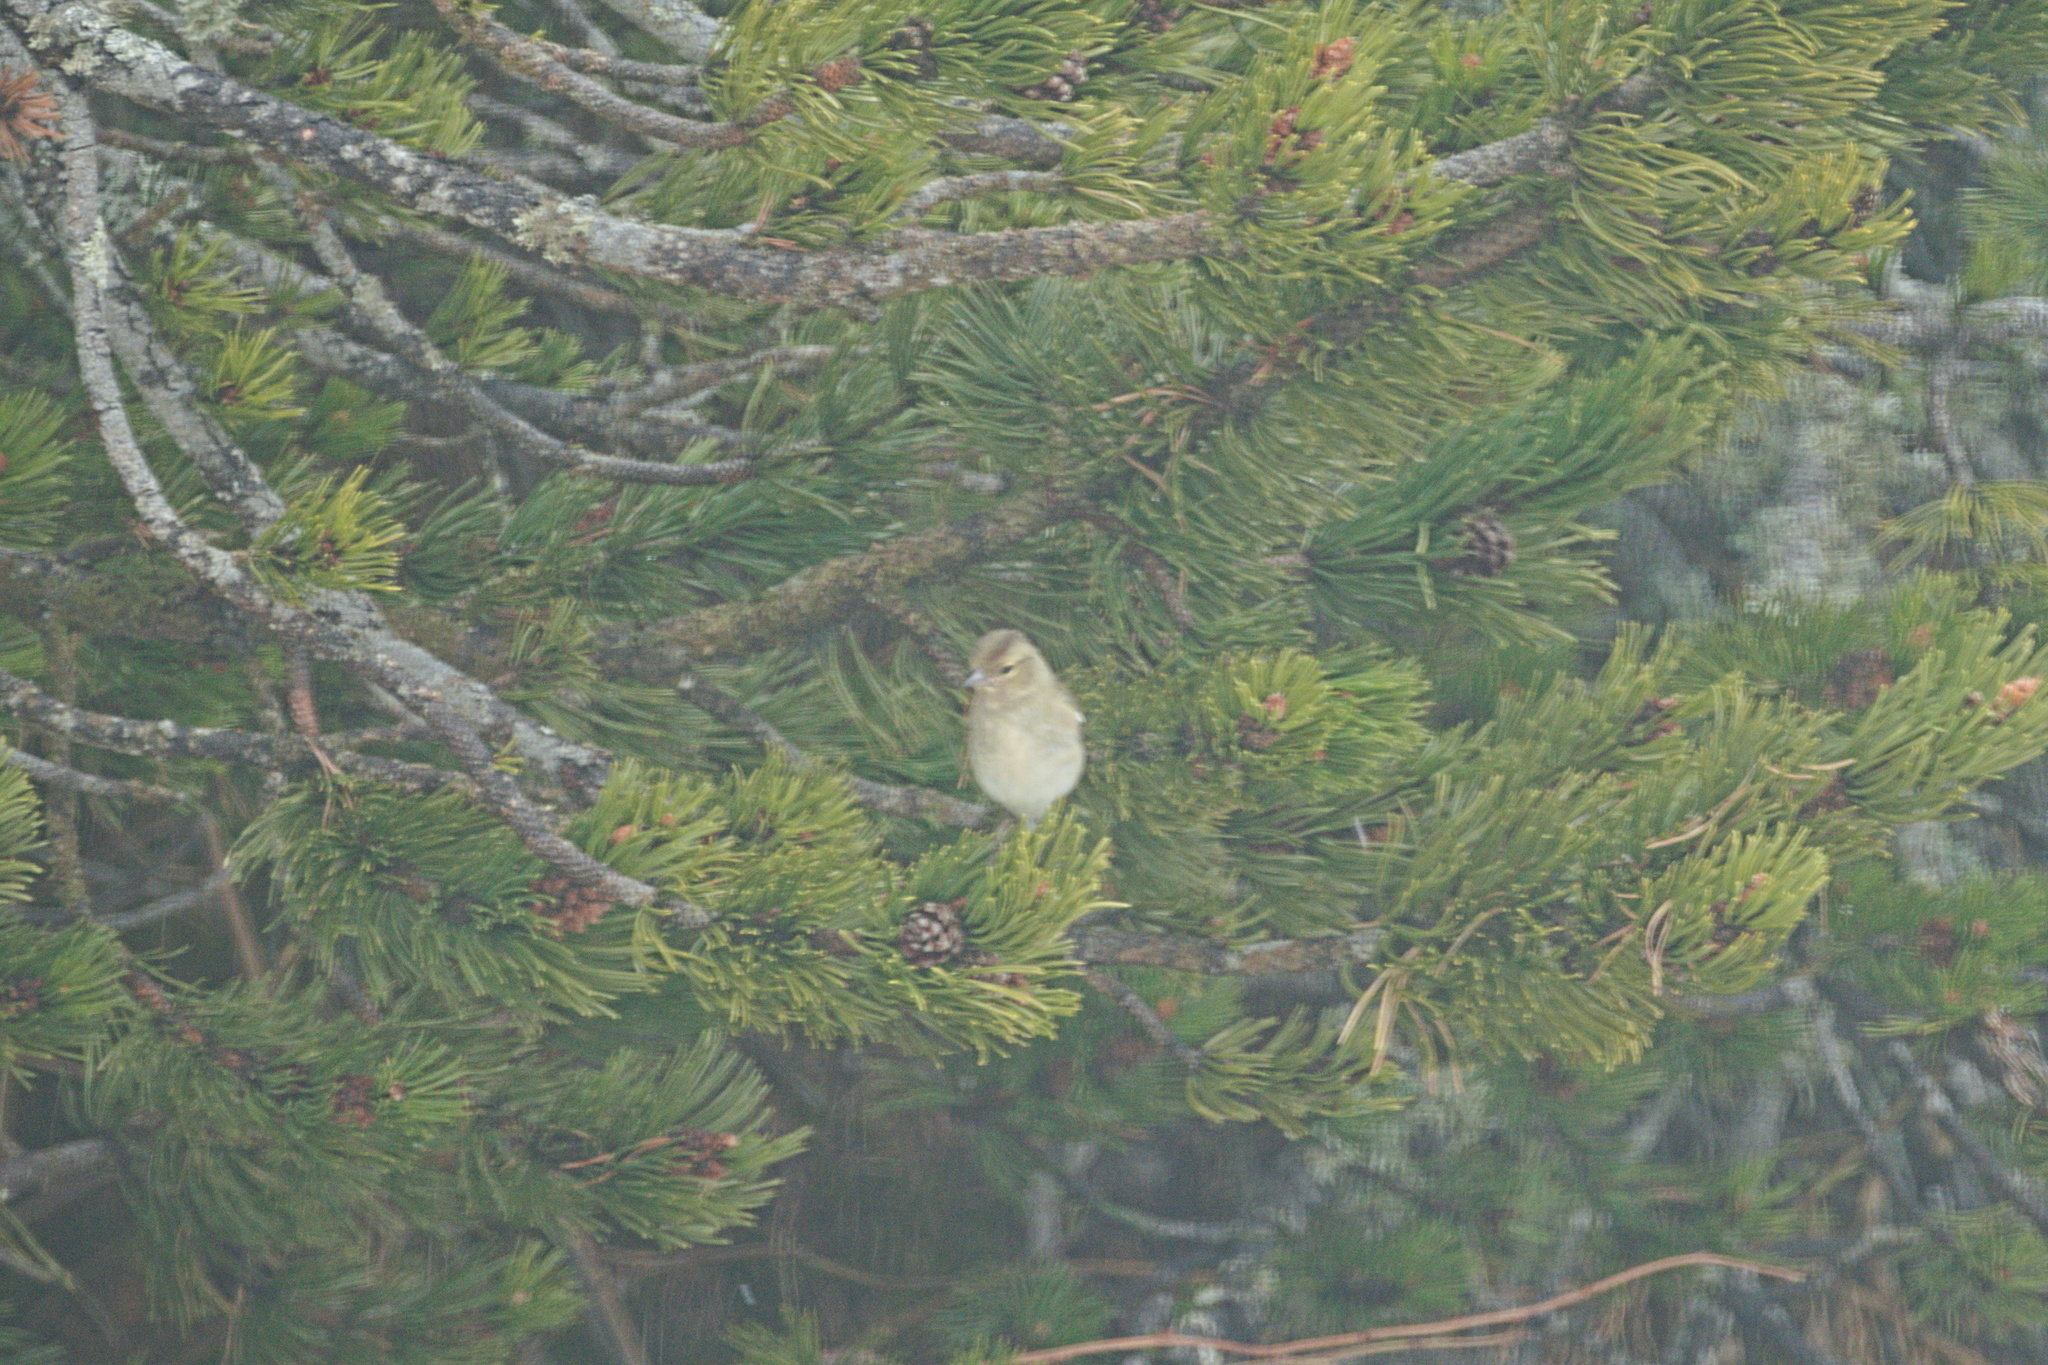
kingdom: Animalia
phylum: Chordata
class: Aves
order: Passeriformes
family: Fringillidae
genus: Fringilla
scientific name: Fringilla coelebs
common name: Common chaffinch
